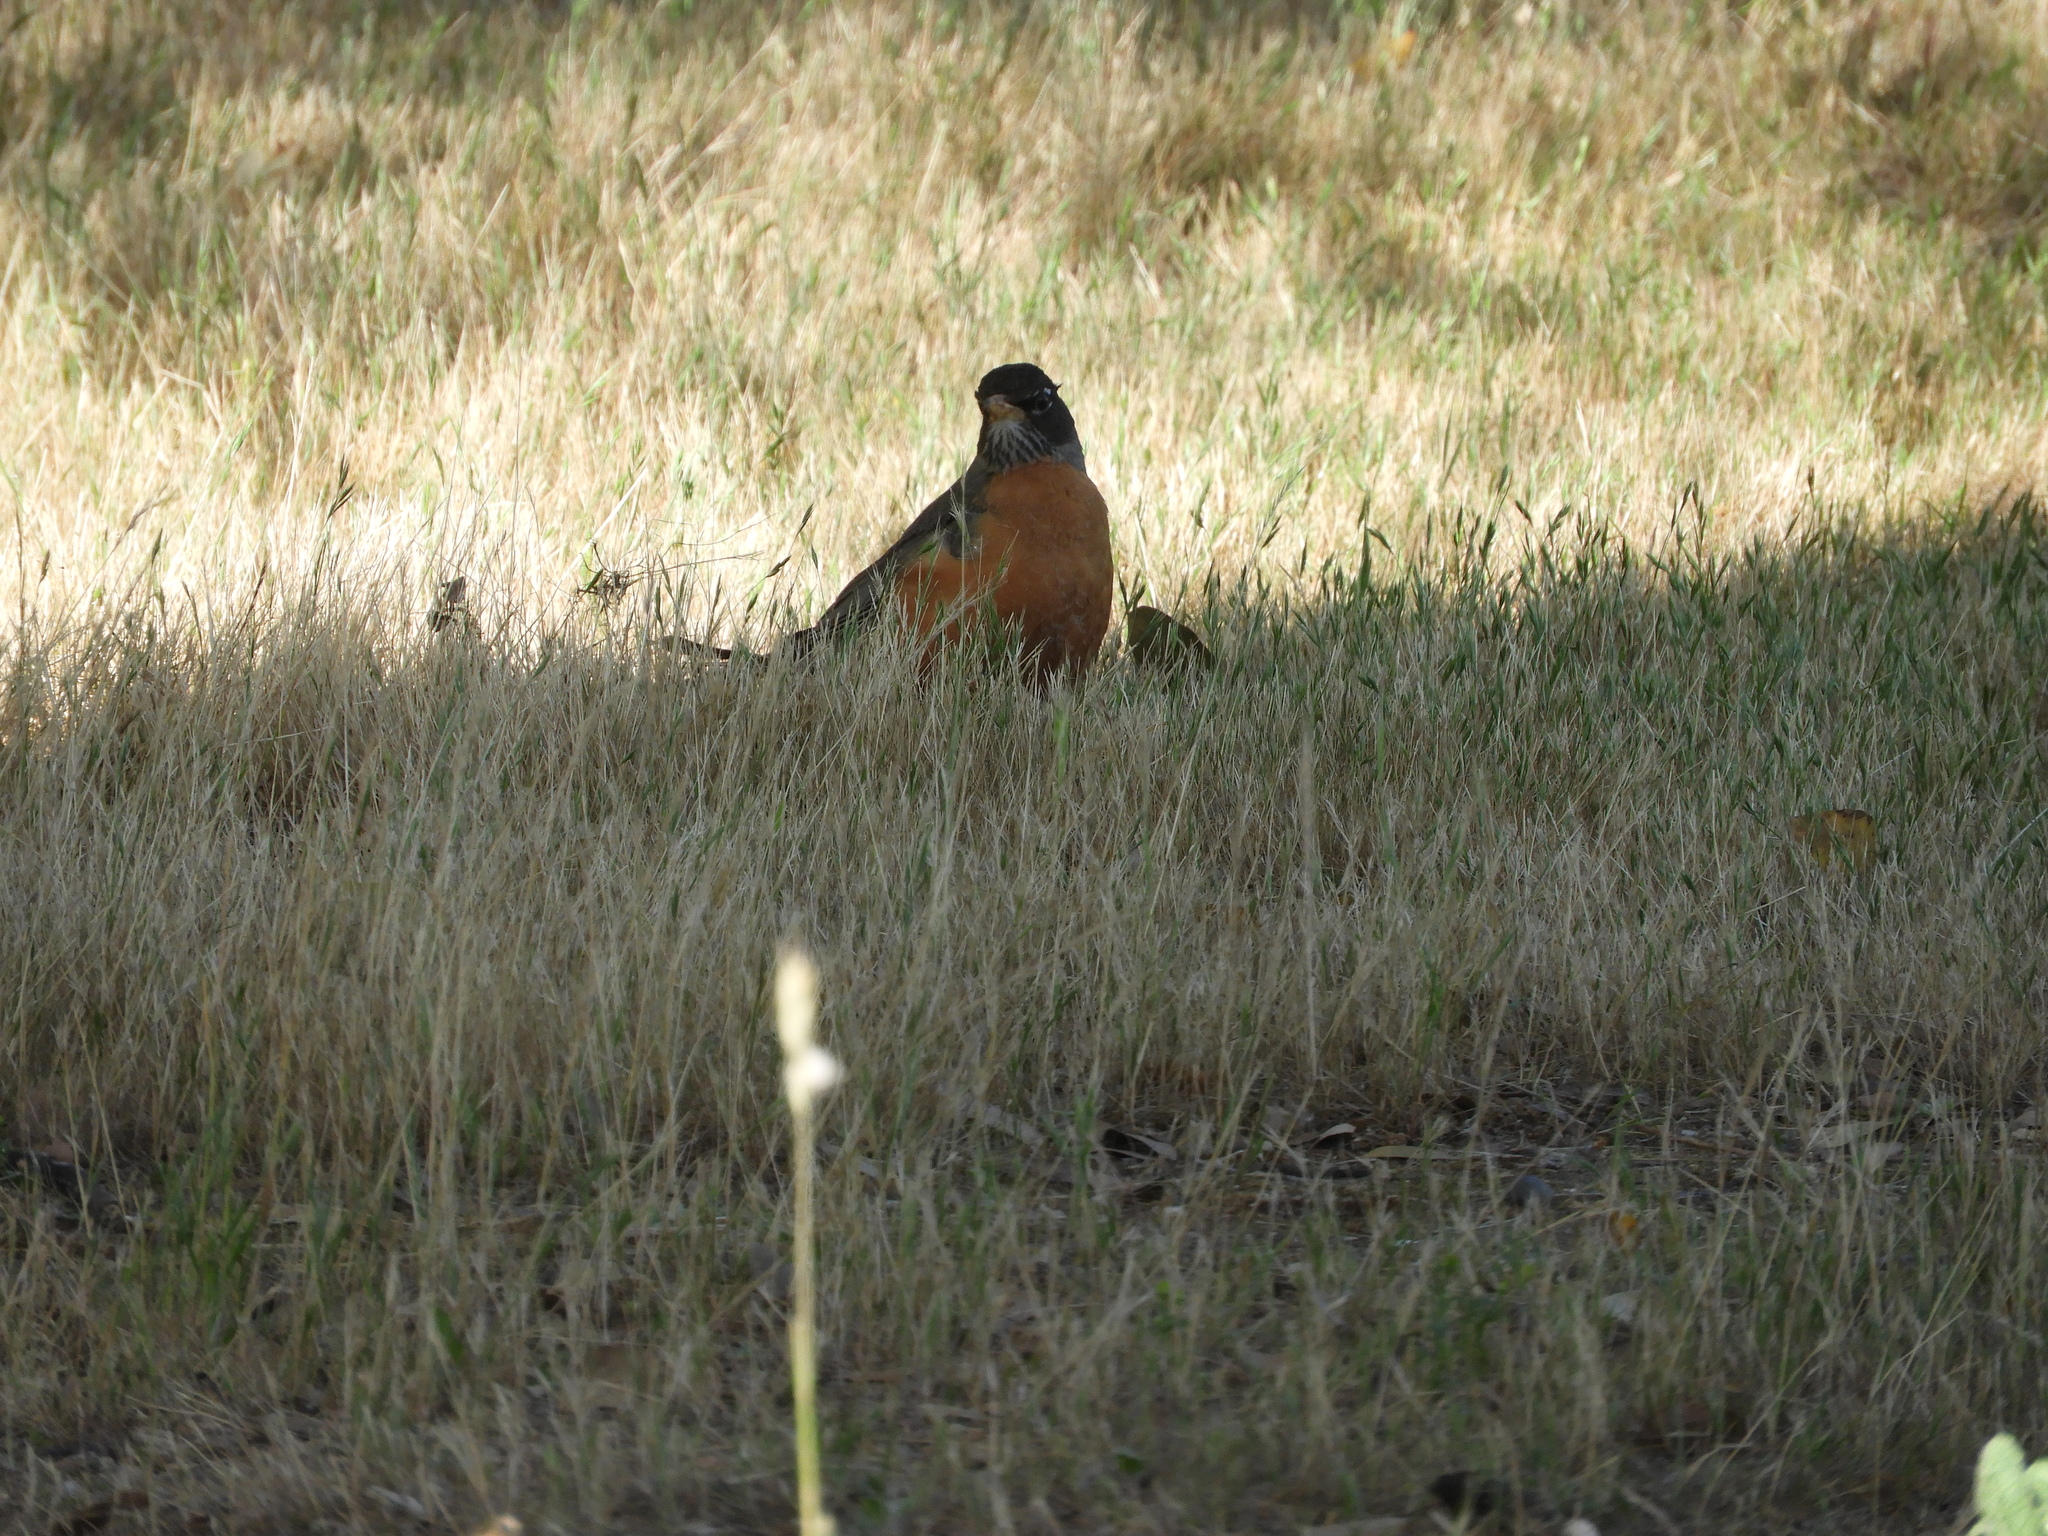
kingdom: Animalia
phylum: Chordata
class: Aves
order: Passeriformes
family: Turdidae
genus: Turdus
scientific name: Turdus migratorius
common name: American robin
